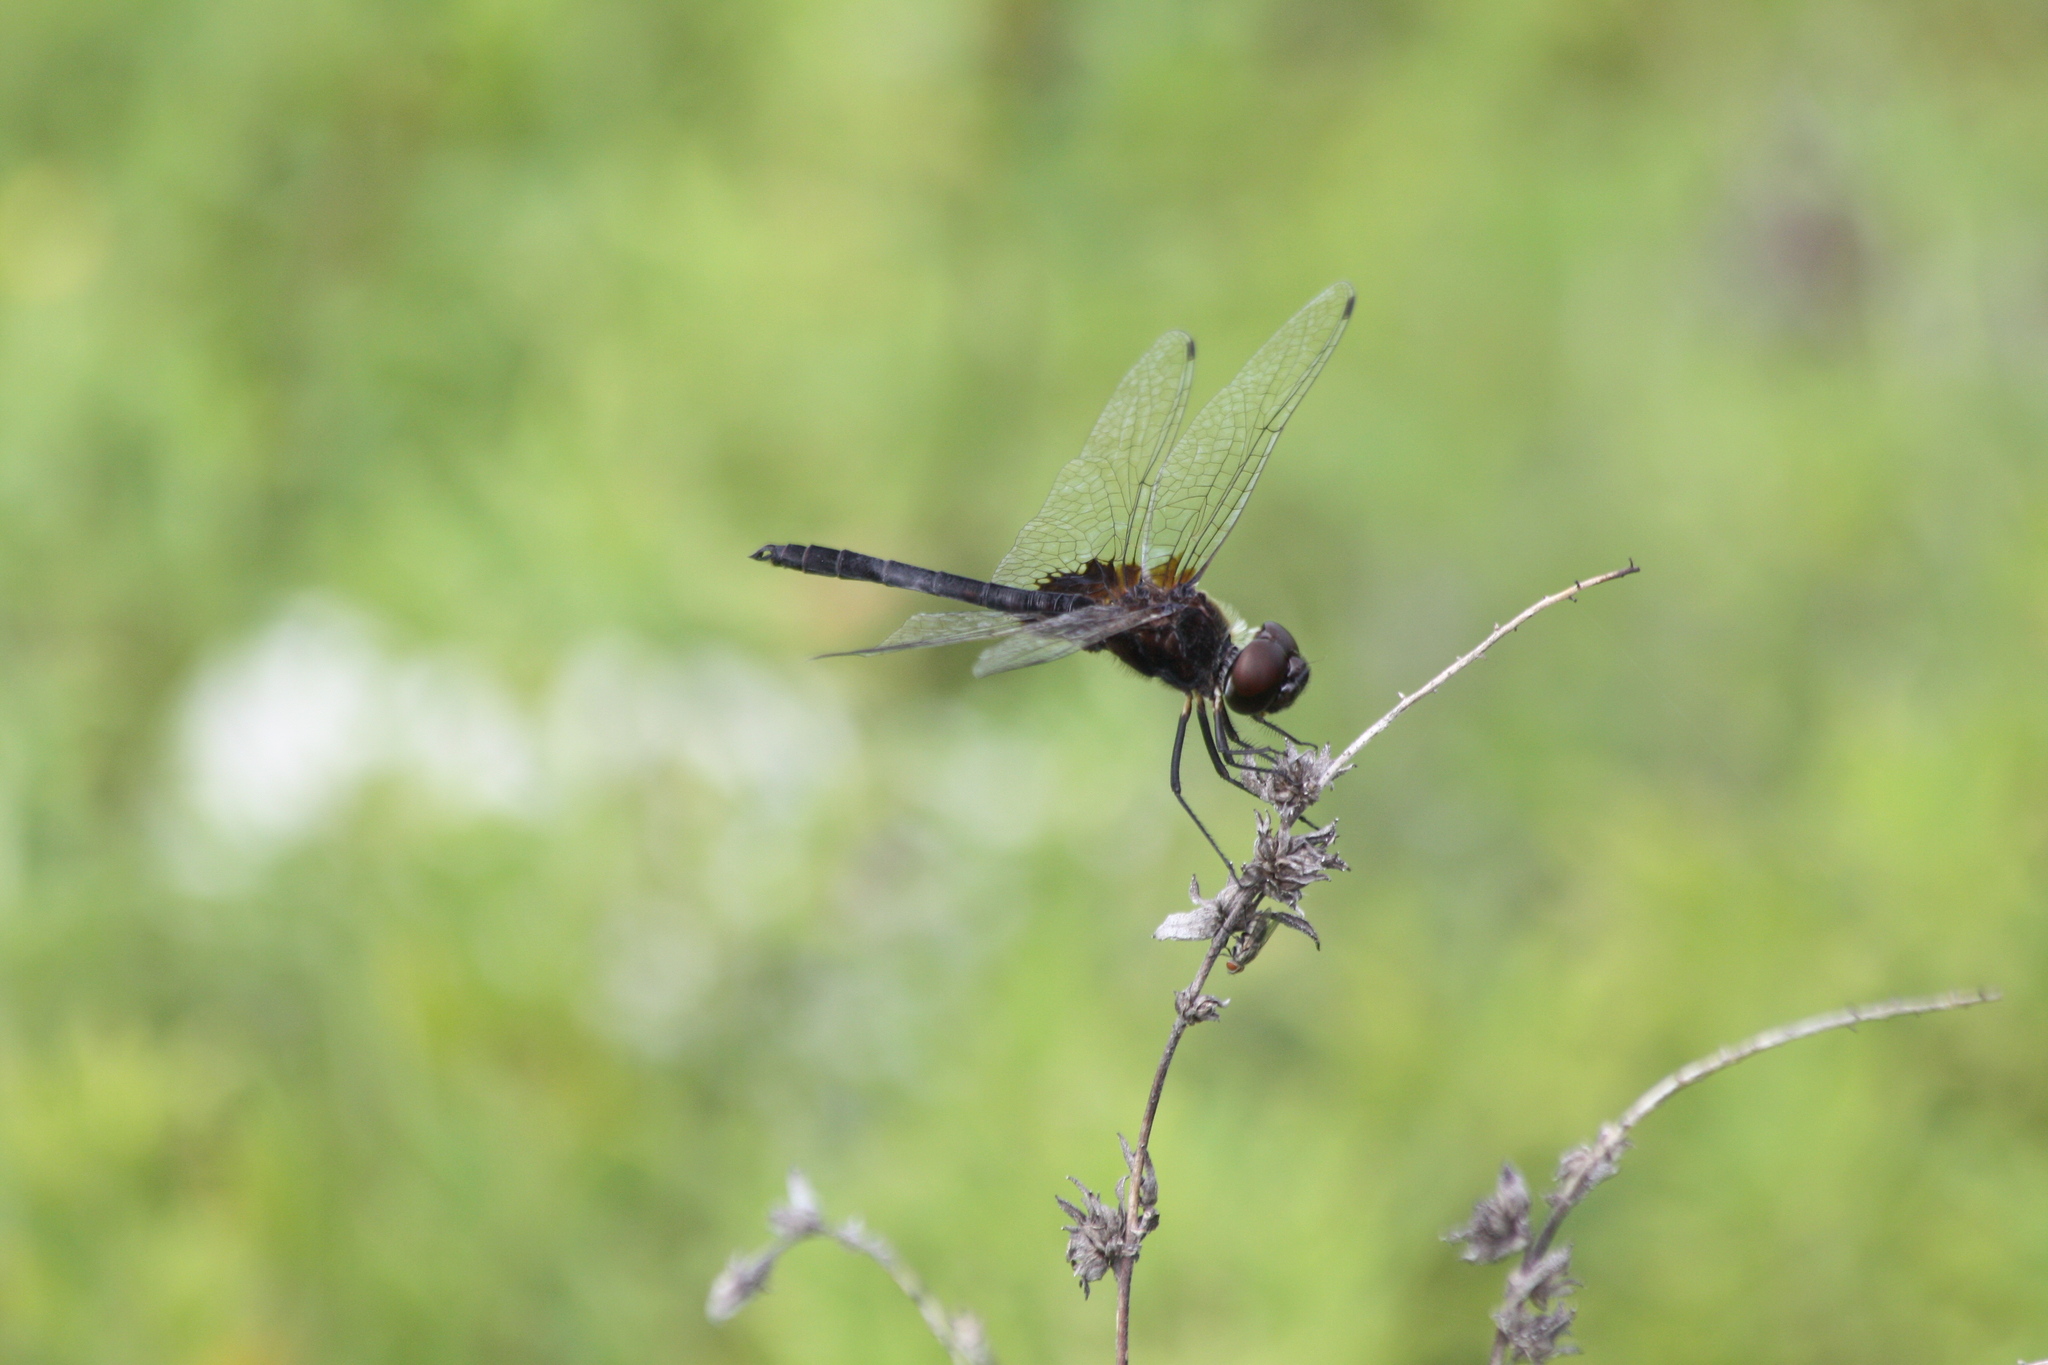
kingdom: Animalia
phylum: Arthropoda
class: Insecta
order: Odonata
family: Libellulidae
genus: Macrodiplax
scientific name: Macrodiplax balteata
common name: Marl pennant
